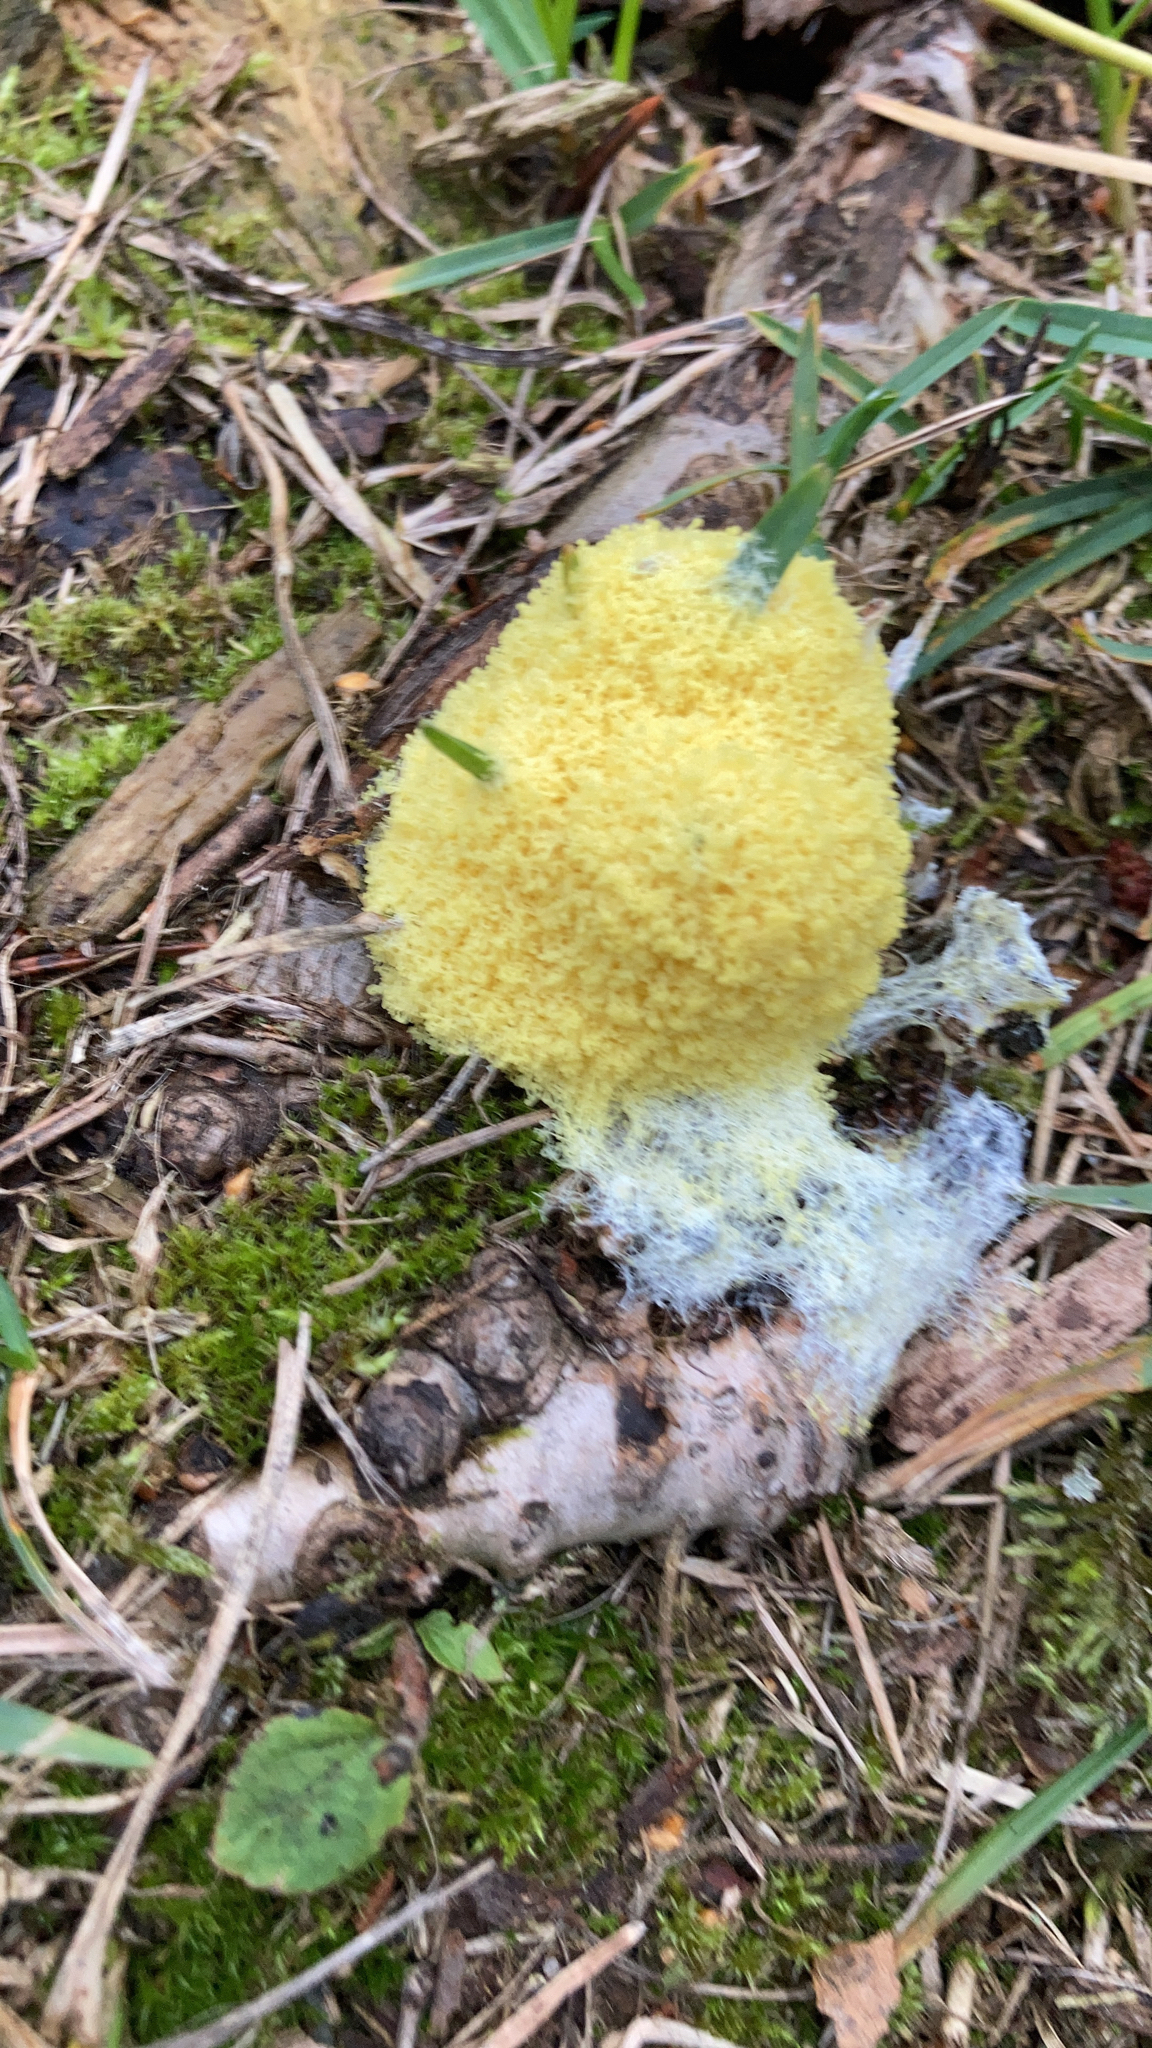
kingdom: Protozoa
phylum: Mycetozoa
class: Myxomycetes
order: Physarales
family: Physaraceae
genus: Fuligo
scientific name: Fuligo septica
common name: Dog vomit slime mold
